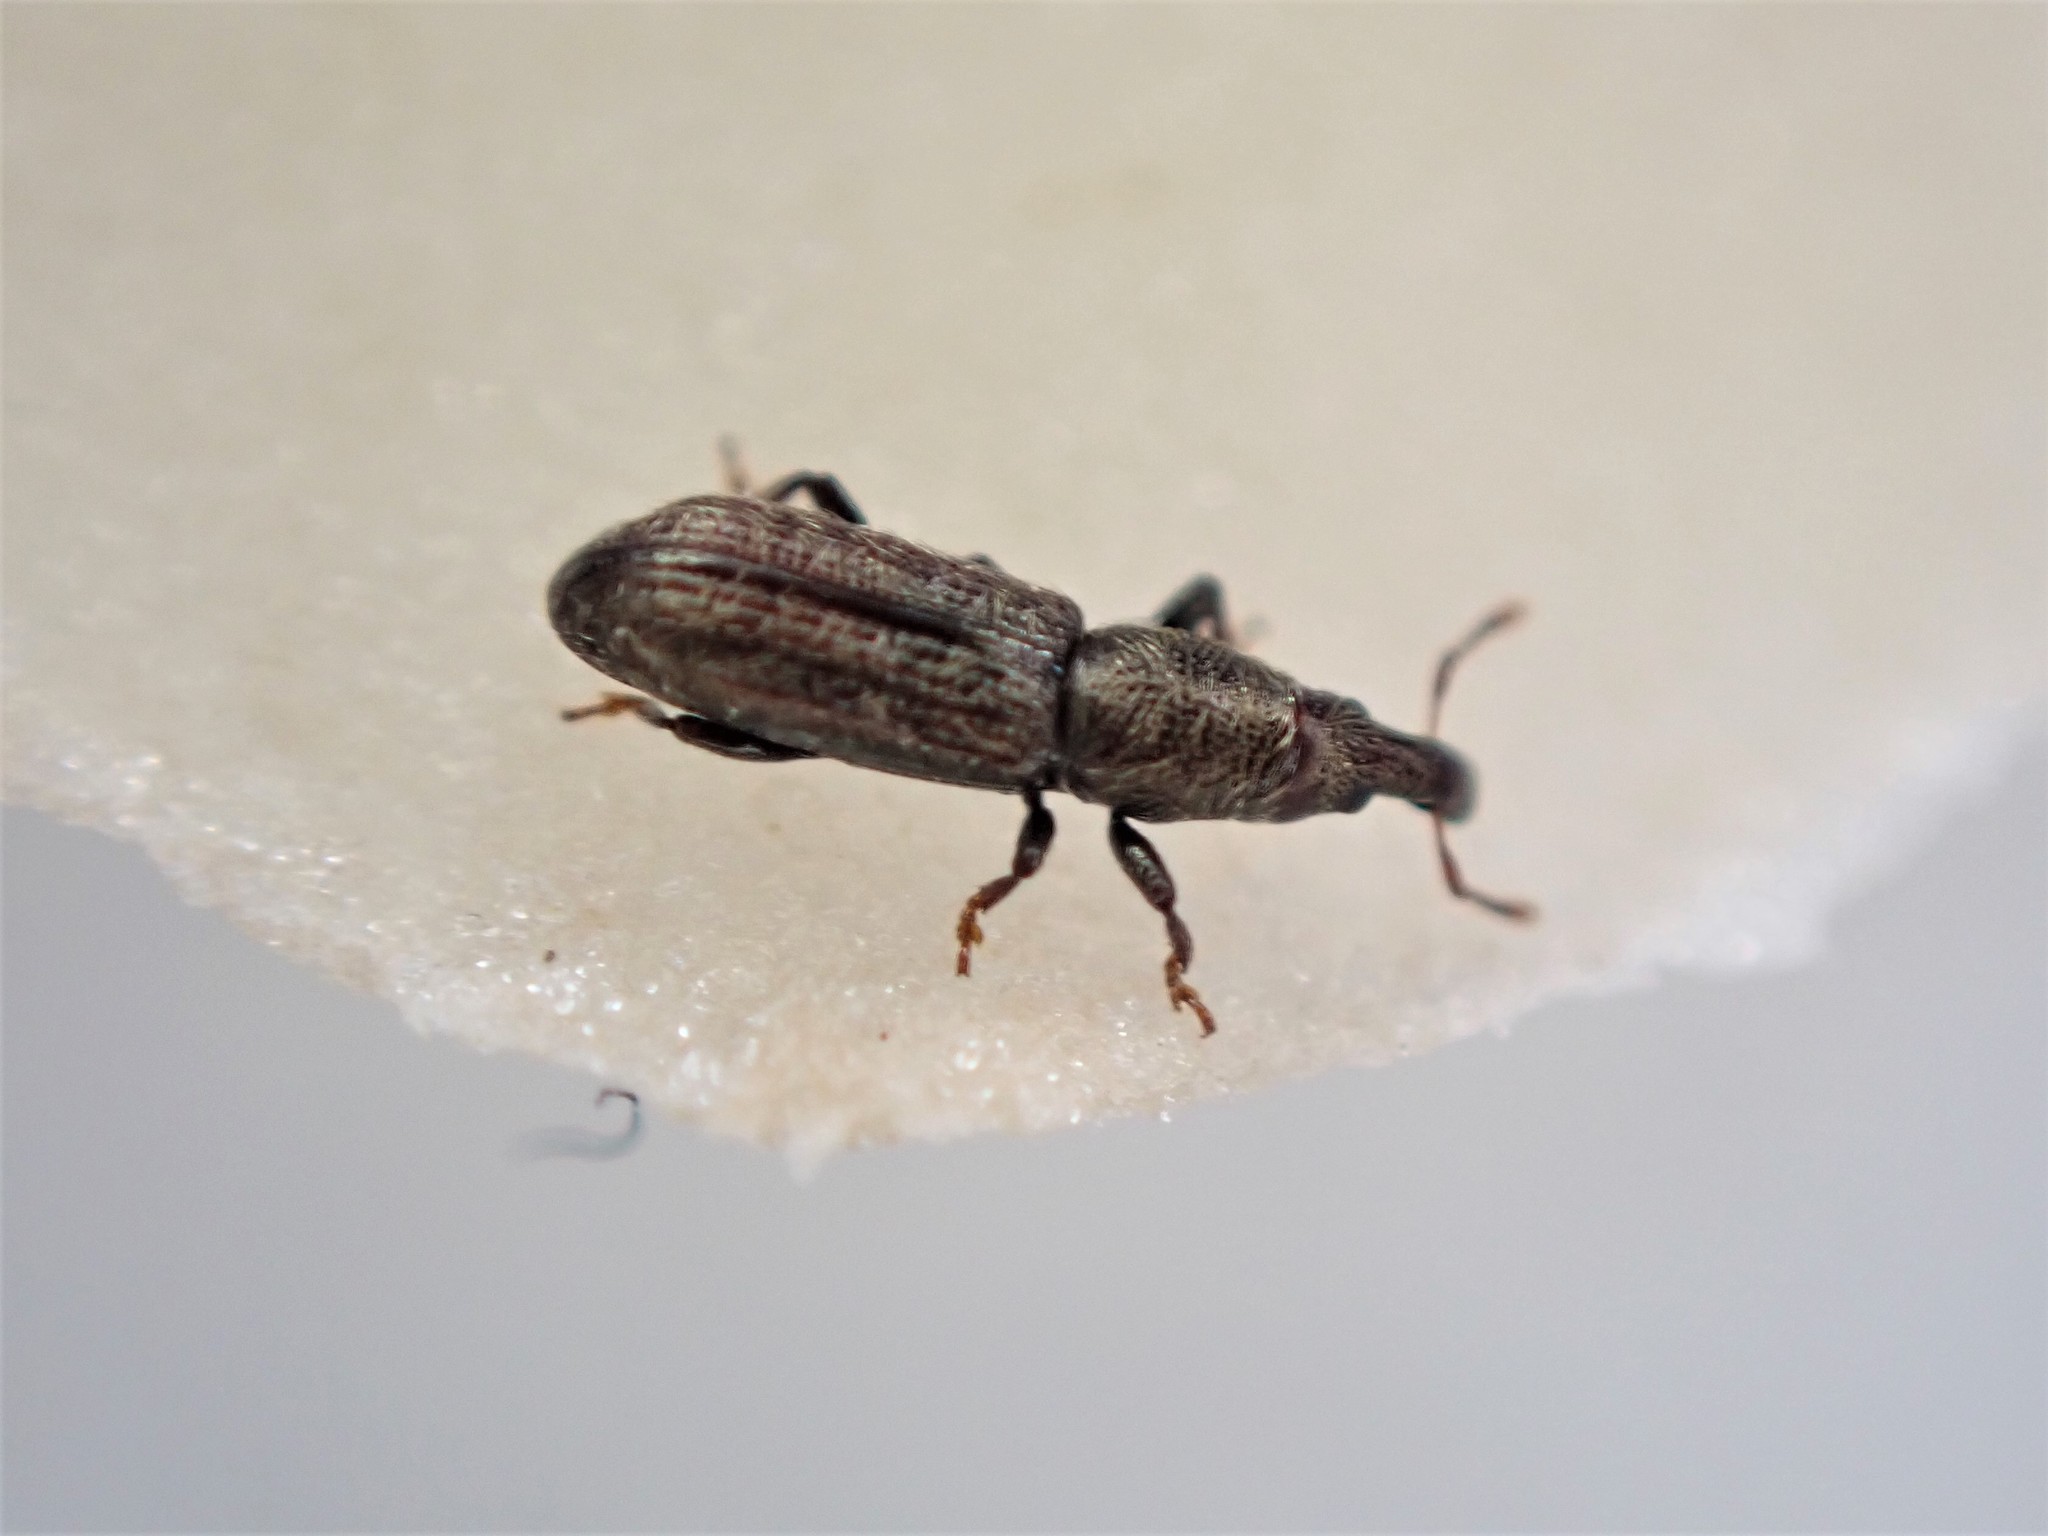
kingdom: Animalia
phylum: Arthropoda
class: Insecta
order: Coleoptera
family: Curculionidae
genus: Sericotrogus
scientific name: Sericotrogus subaenescens
